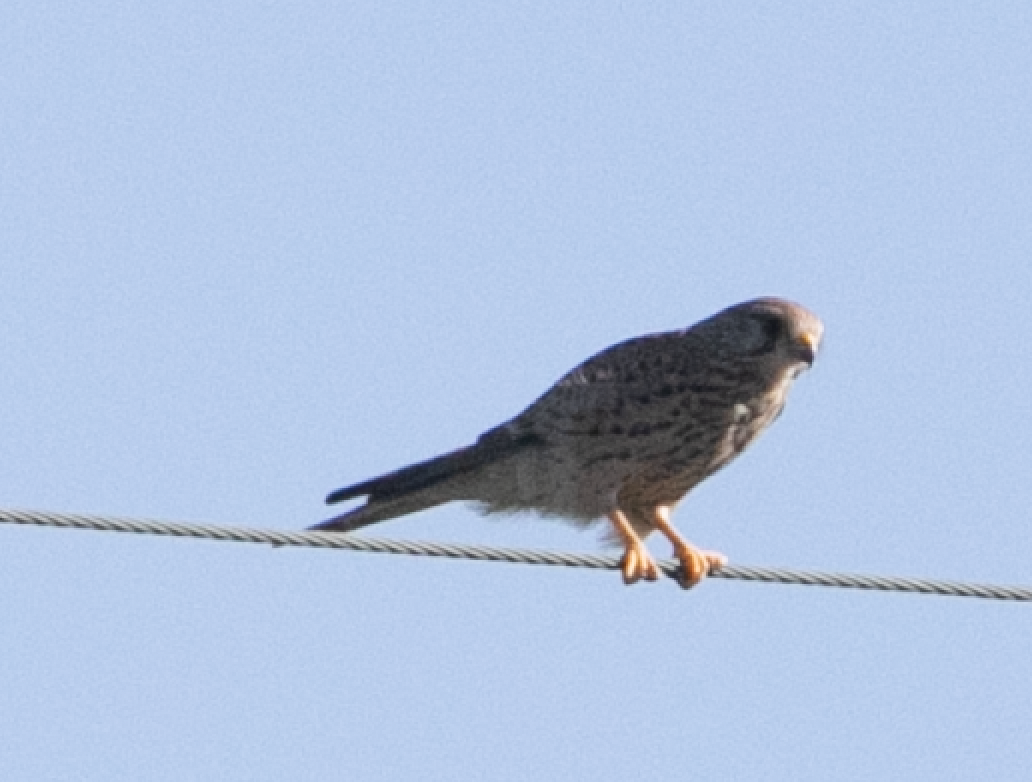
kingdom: Animalia
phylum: Chordata
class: Aves
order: Falconiformes
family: Falconidae
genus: Falco
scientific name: Falco tinnunculus
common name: Common kestrel
